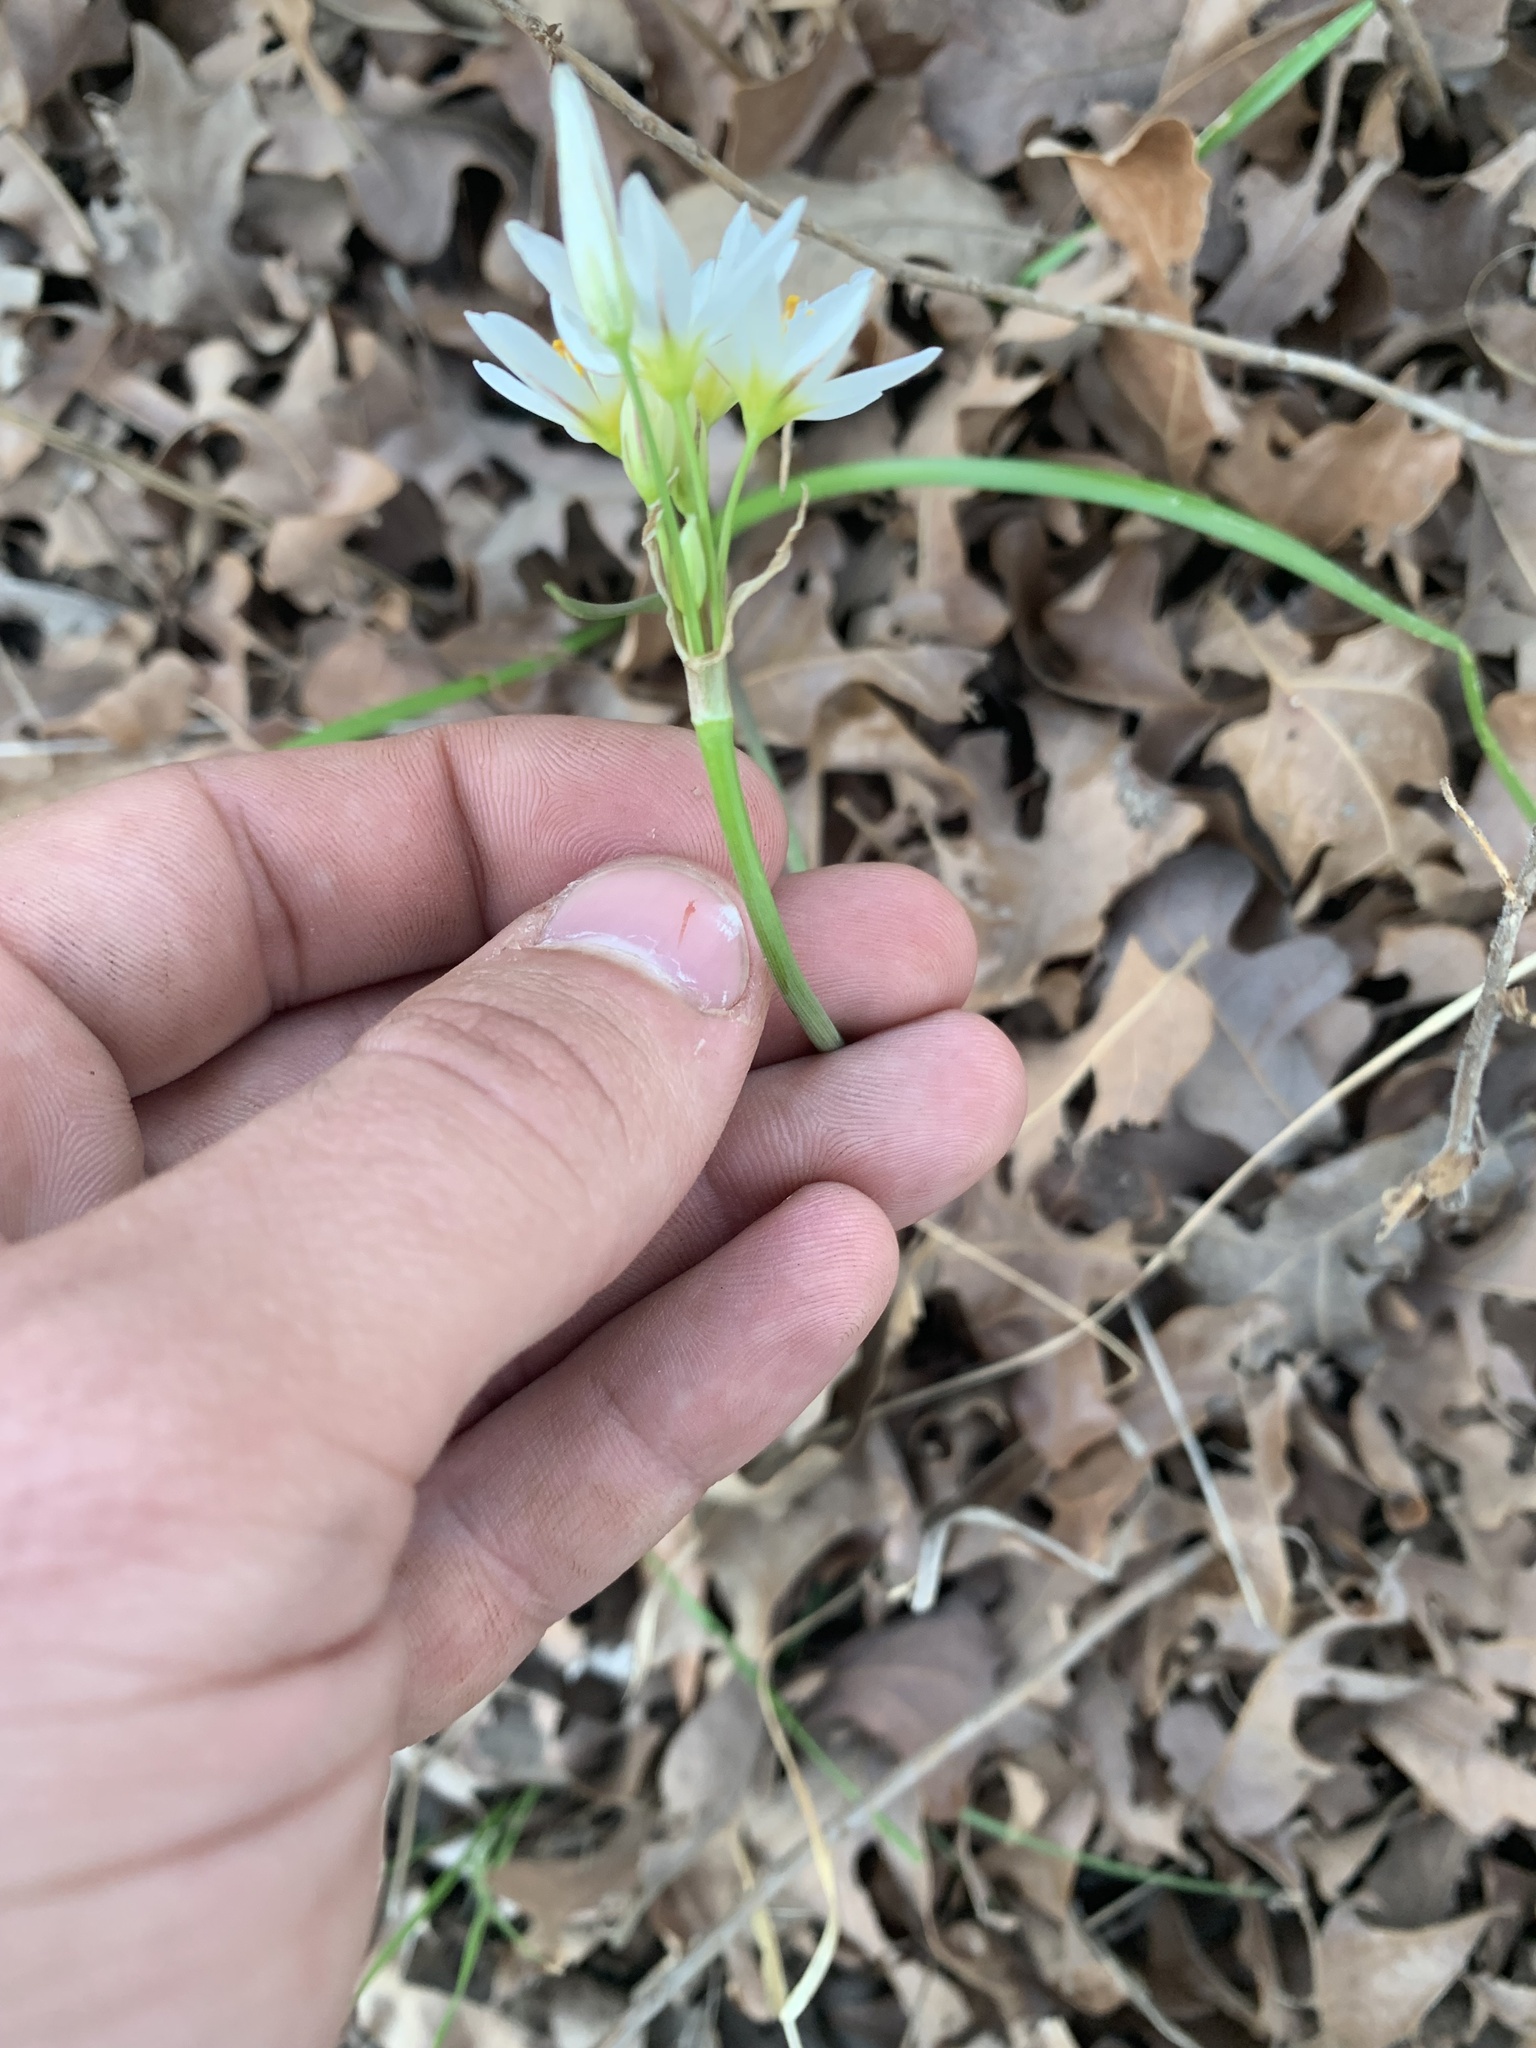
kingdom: Plantae
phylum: Tracheophyta
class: Liliopsida
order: Asparagales
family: Amaryllidaceae
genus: Nothoscordum
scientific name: Nothoscordum bivalve
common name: Crow-poison
